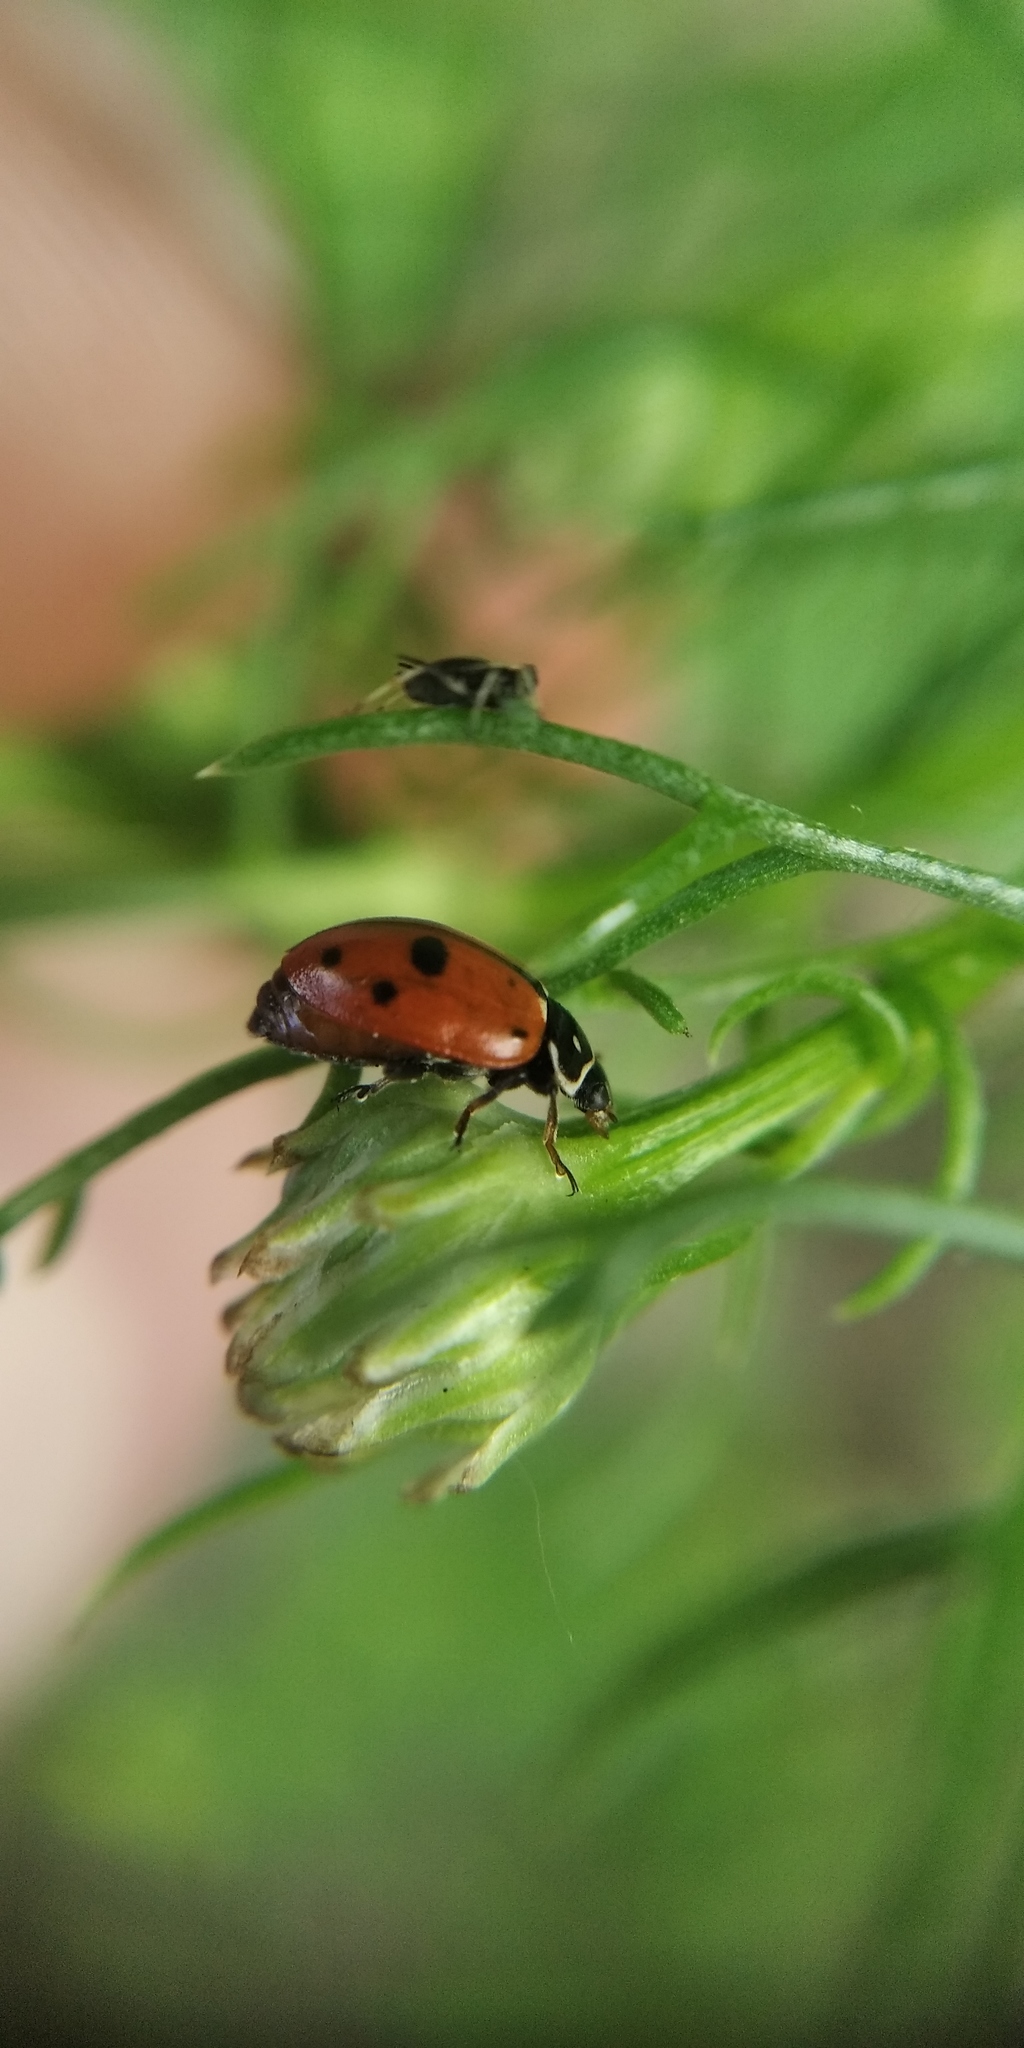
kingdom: Animalia
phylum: Arthropoda
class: Insecta
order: Coleoptera
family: Coccinellidae
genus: Hippodamia
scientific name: Hippodamia variegata
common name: Ladybird beetle
